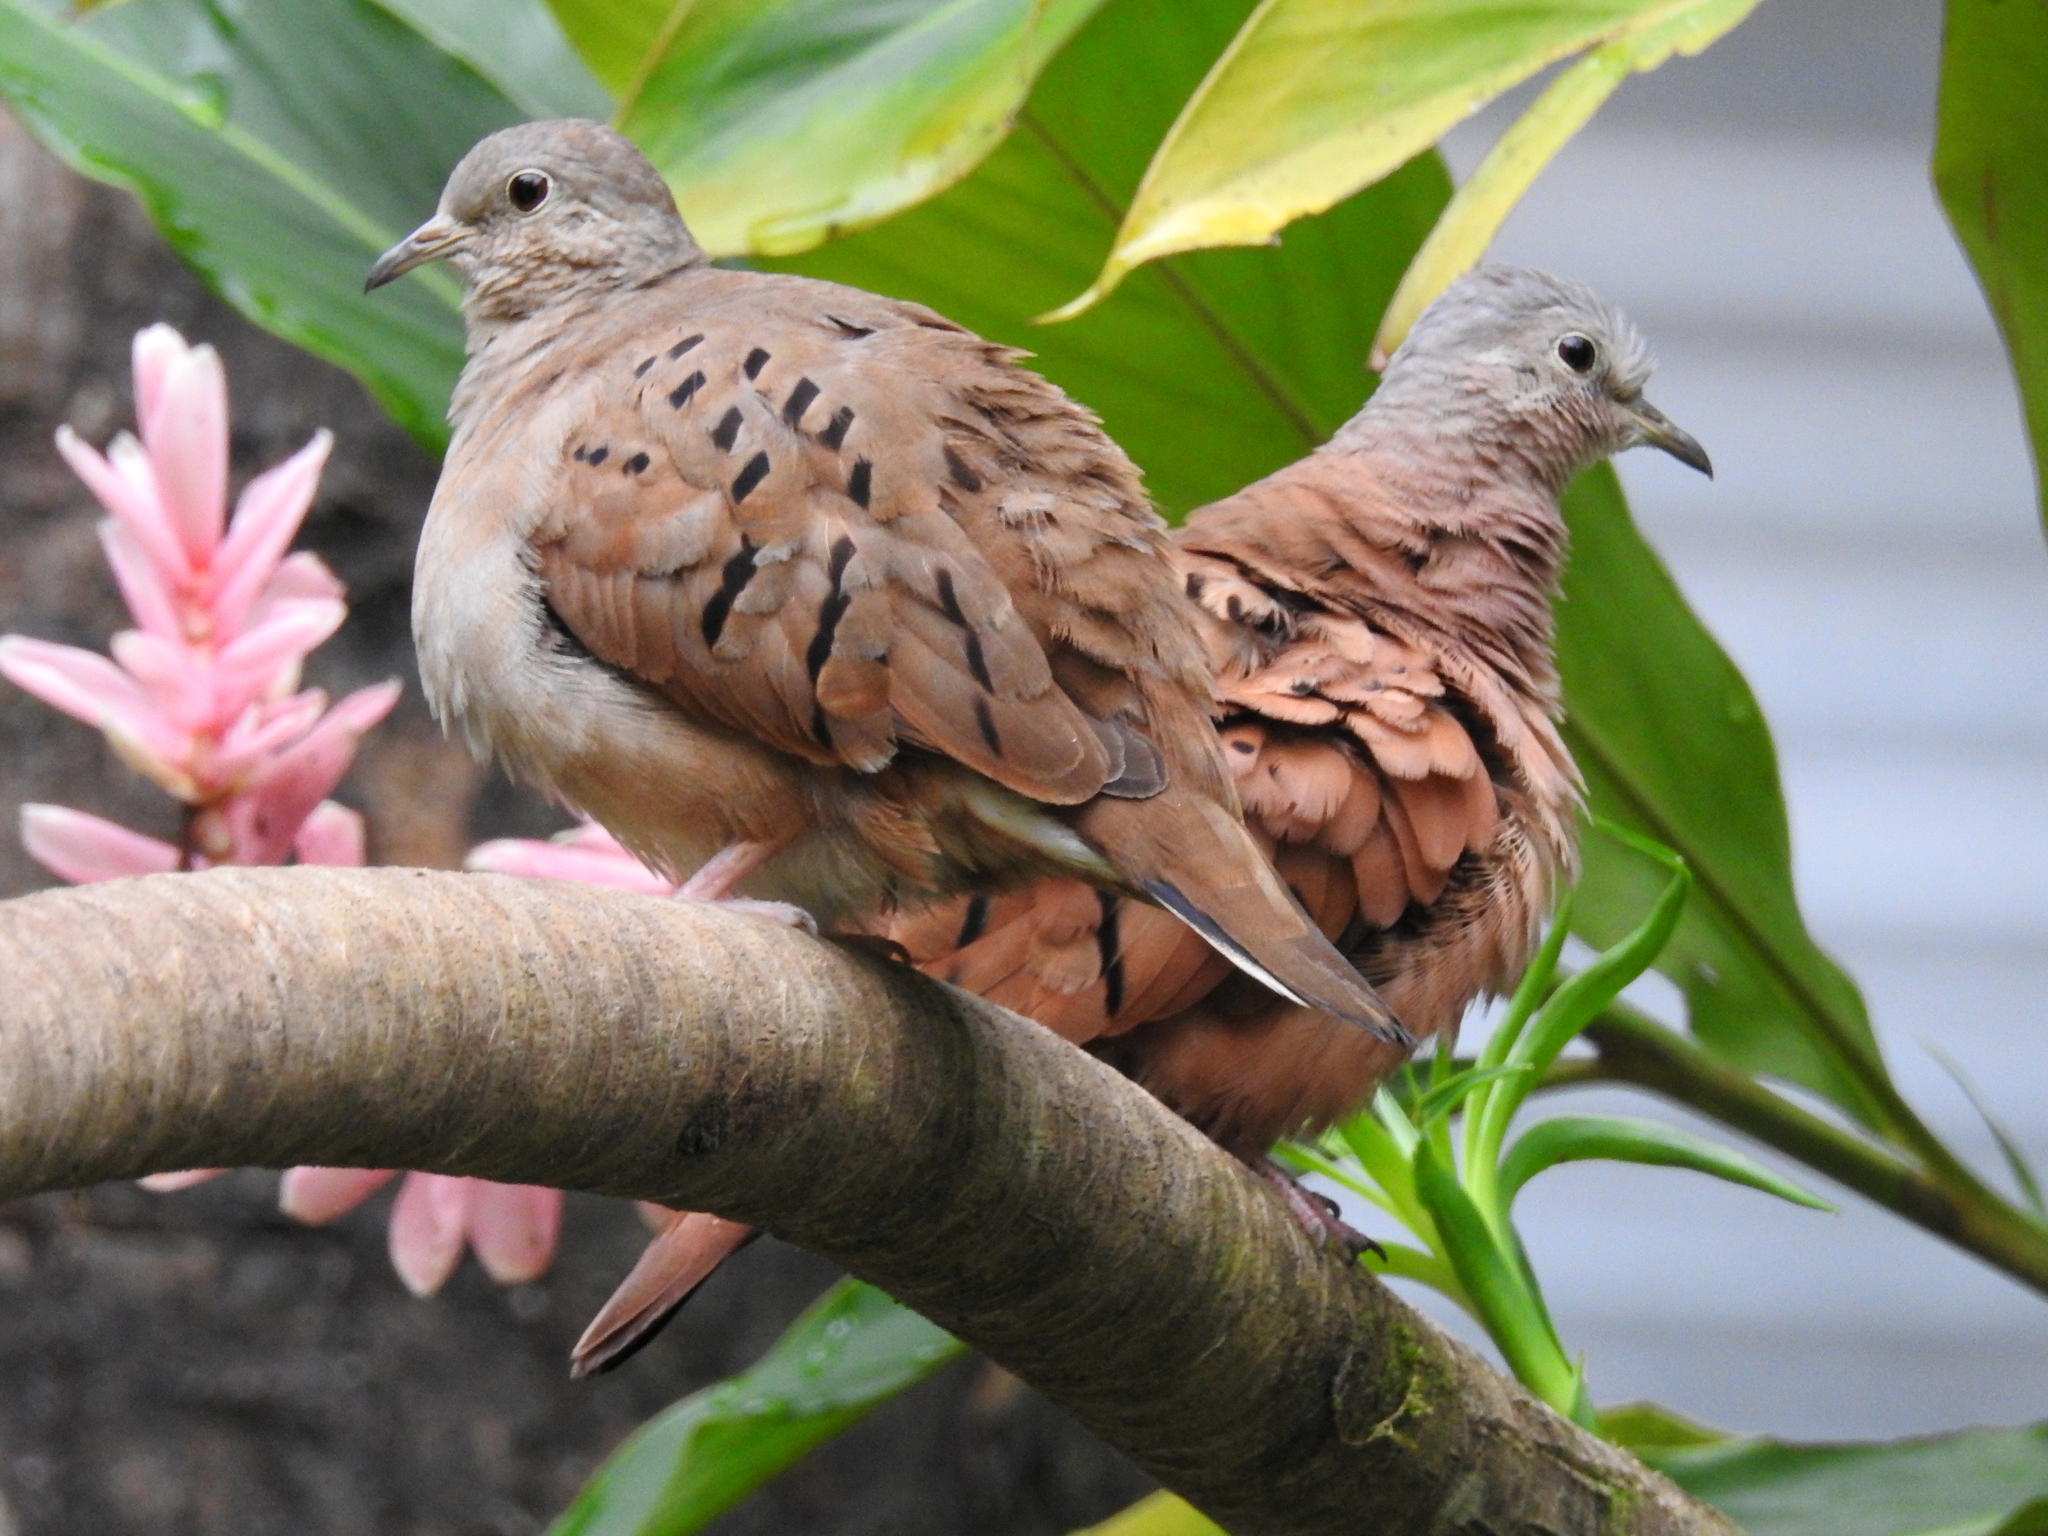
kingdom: Animalia
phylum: Chordata
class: Aves
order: Columbiformes
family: Columbidae
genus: Columbina
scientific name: Columbina talpacoti
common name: Ruddy ground dove
